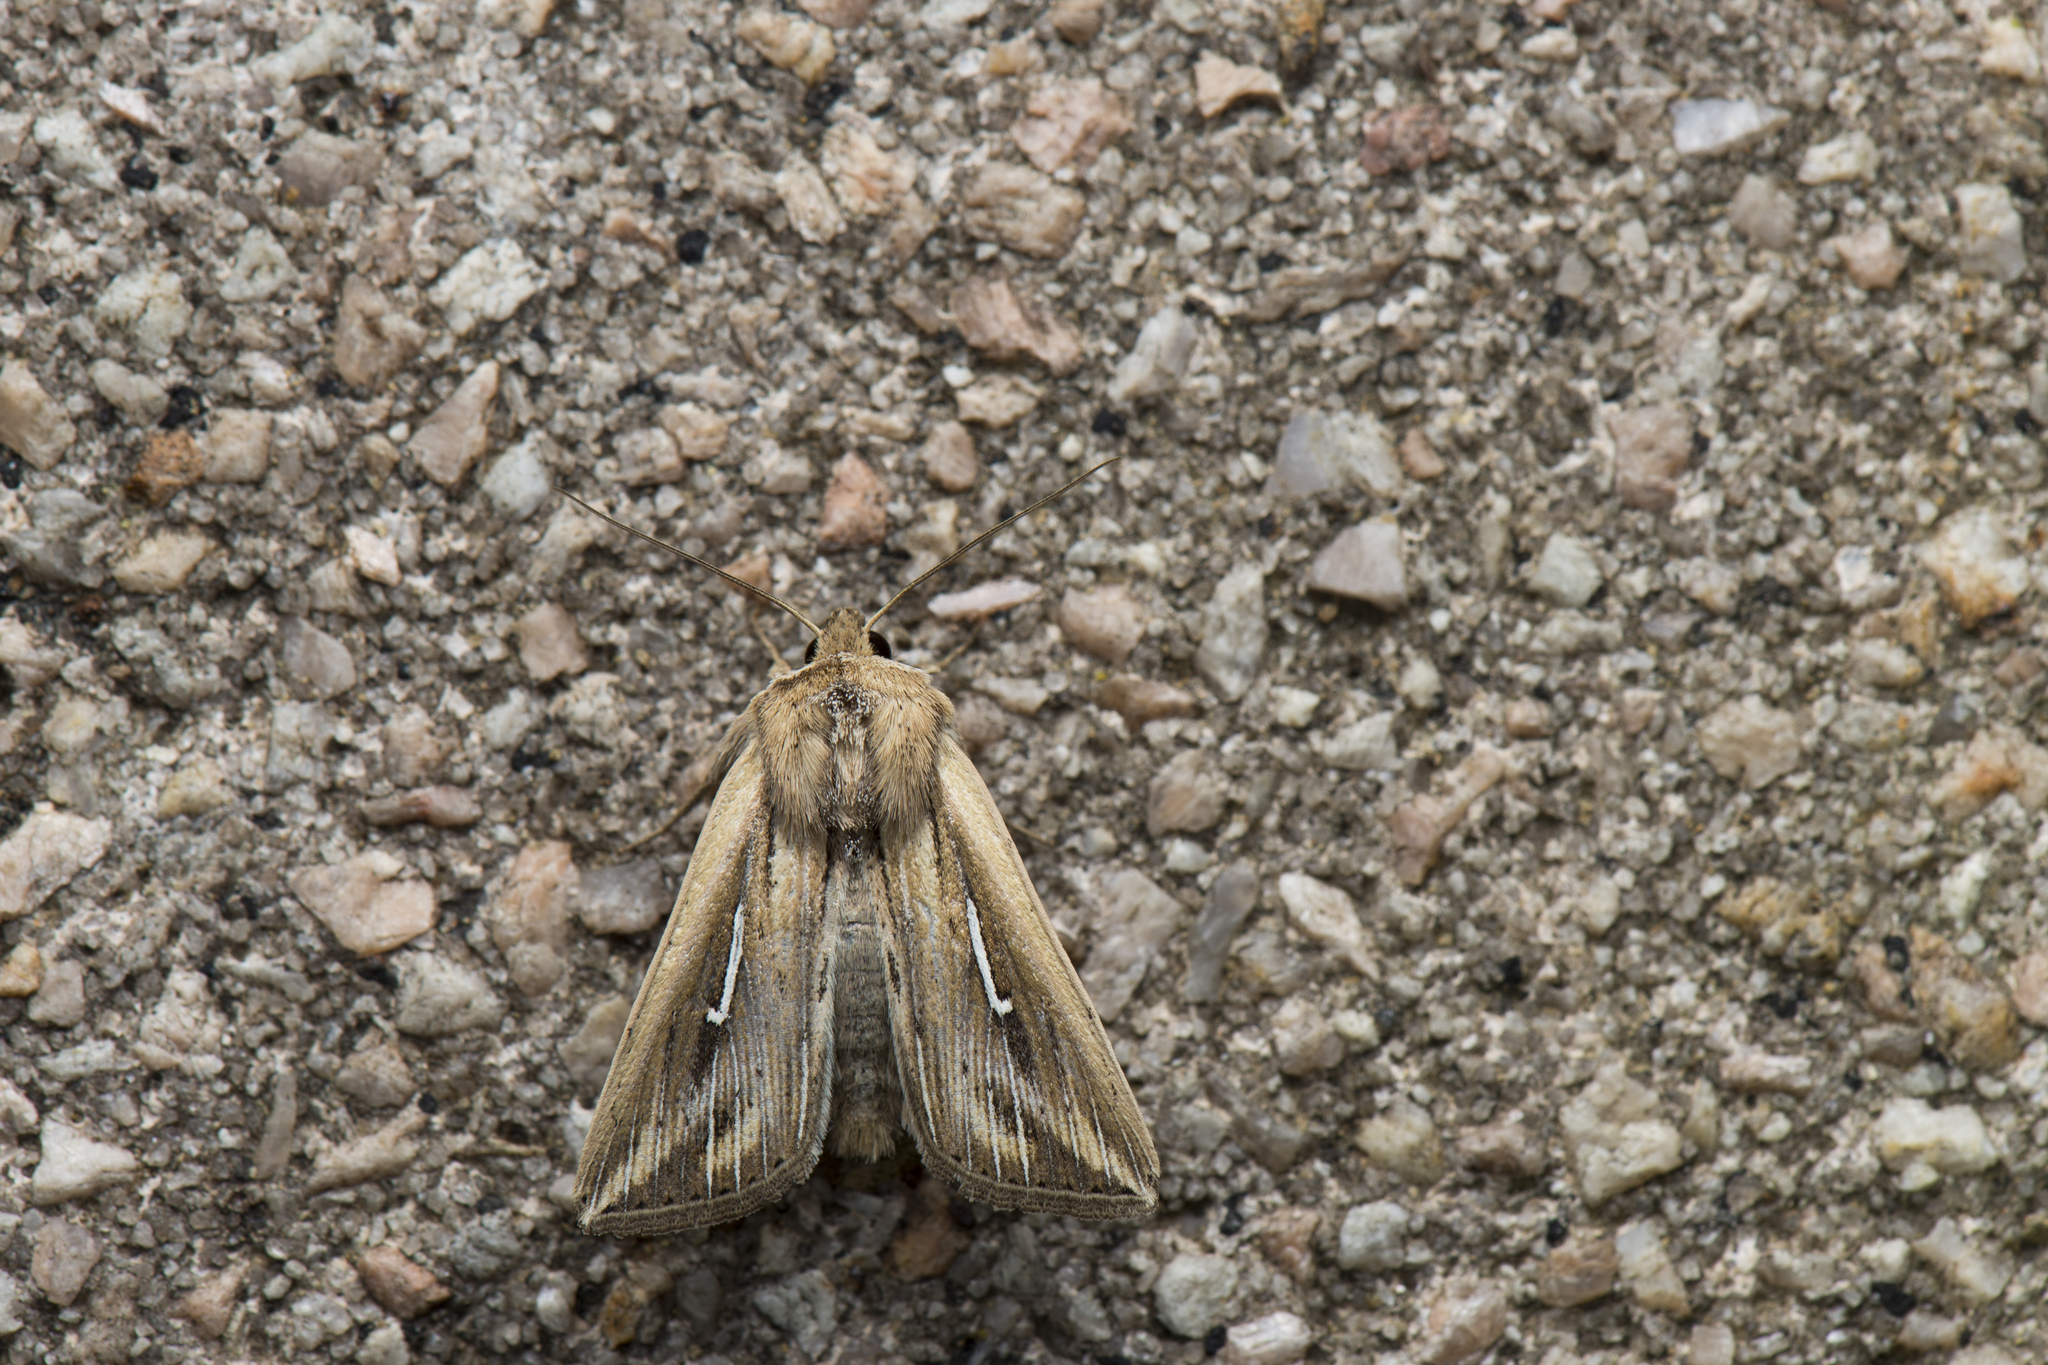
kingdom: Animalia
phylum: Arthropoda
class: Insecta
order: Lepidoptera
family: Noctuidae
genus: Mythimna
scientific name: Mythimna bistrigata
